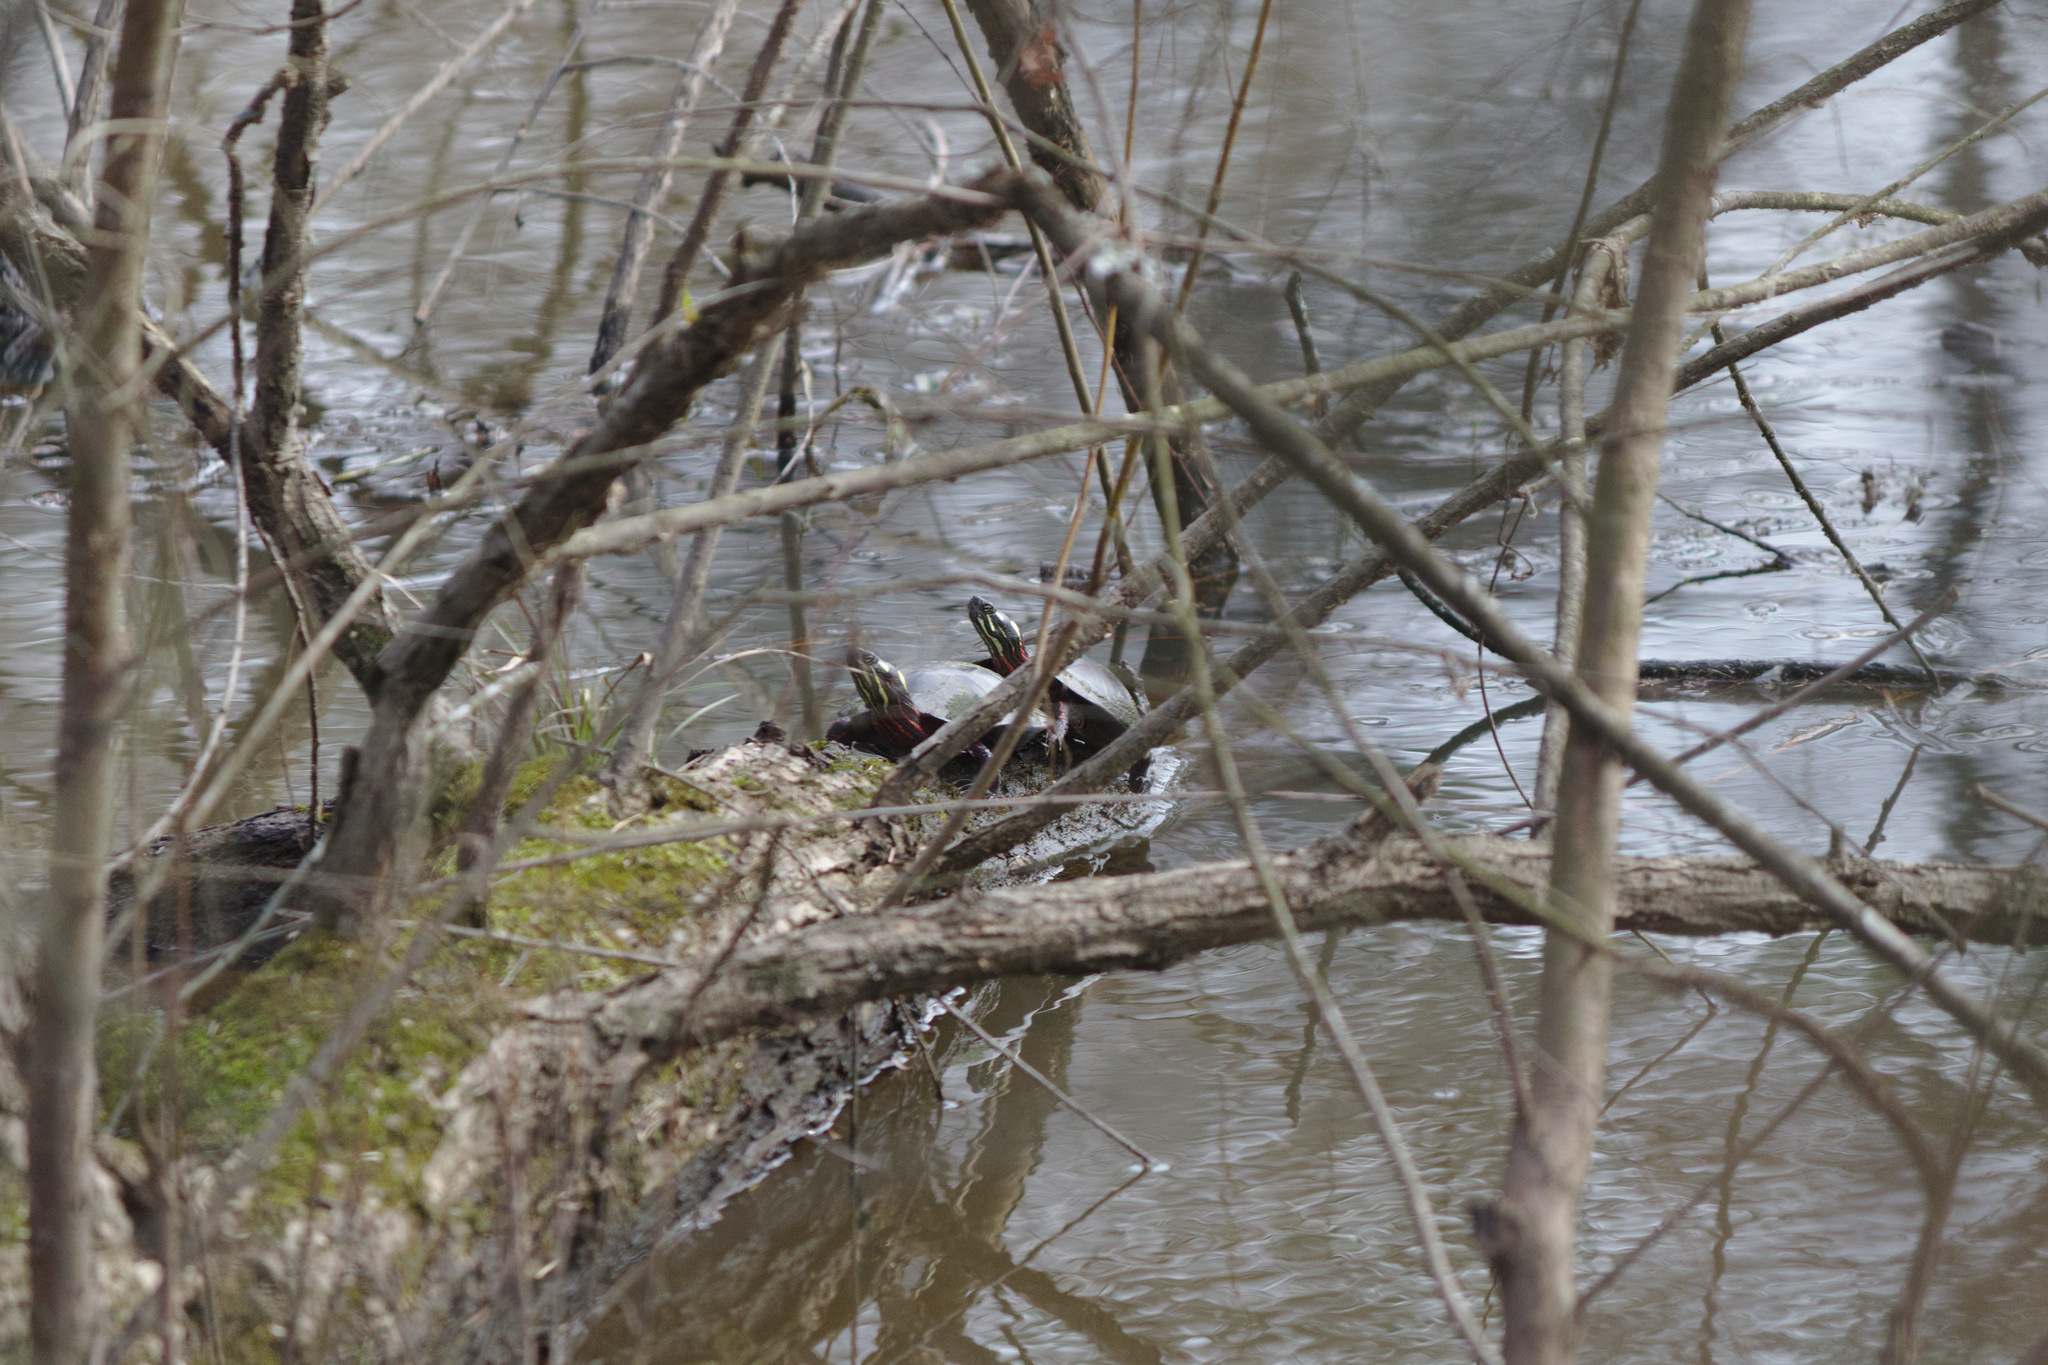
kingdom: Animalia
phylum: Chordata
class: Testudines
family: Emydidae
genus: Chrysemys
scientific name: Chrysemys picta
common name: Painted turtle
